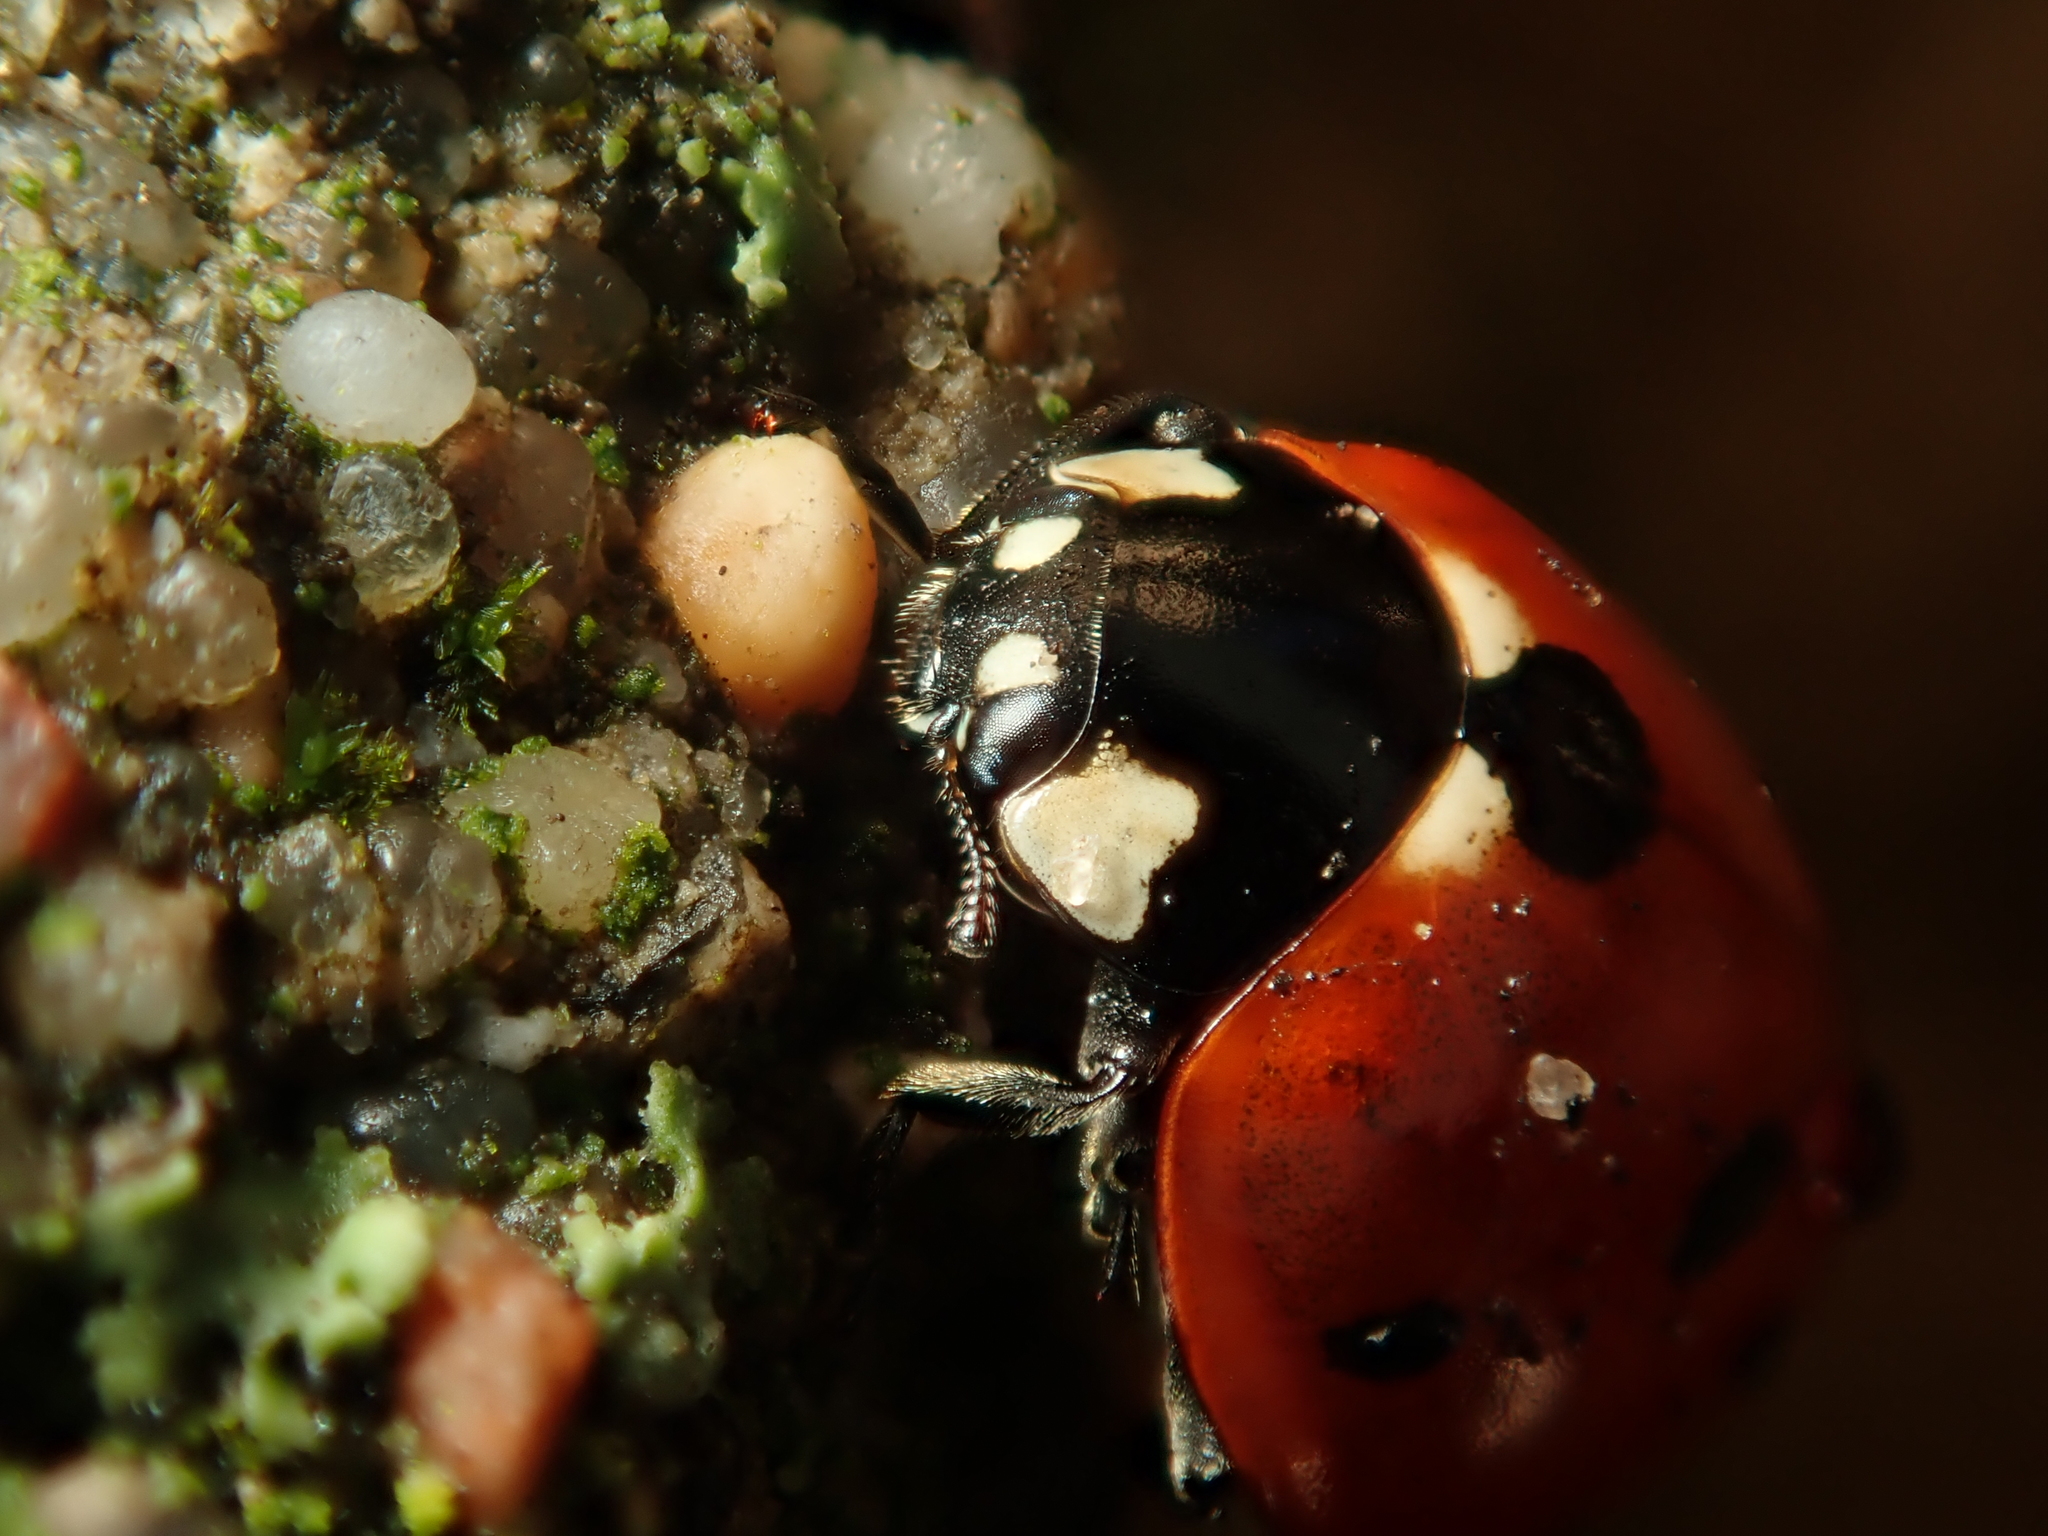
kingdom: Animalia
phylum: Arthropoda
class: Insecta
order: Coleoptera
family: Coccinellidae
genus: Coccinella
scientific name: Coccinella septempunctata
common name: Sevenspotted lady beetle
